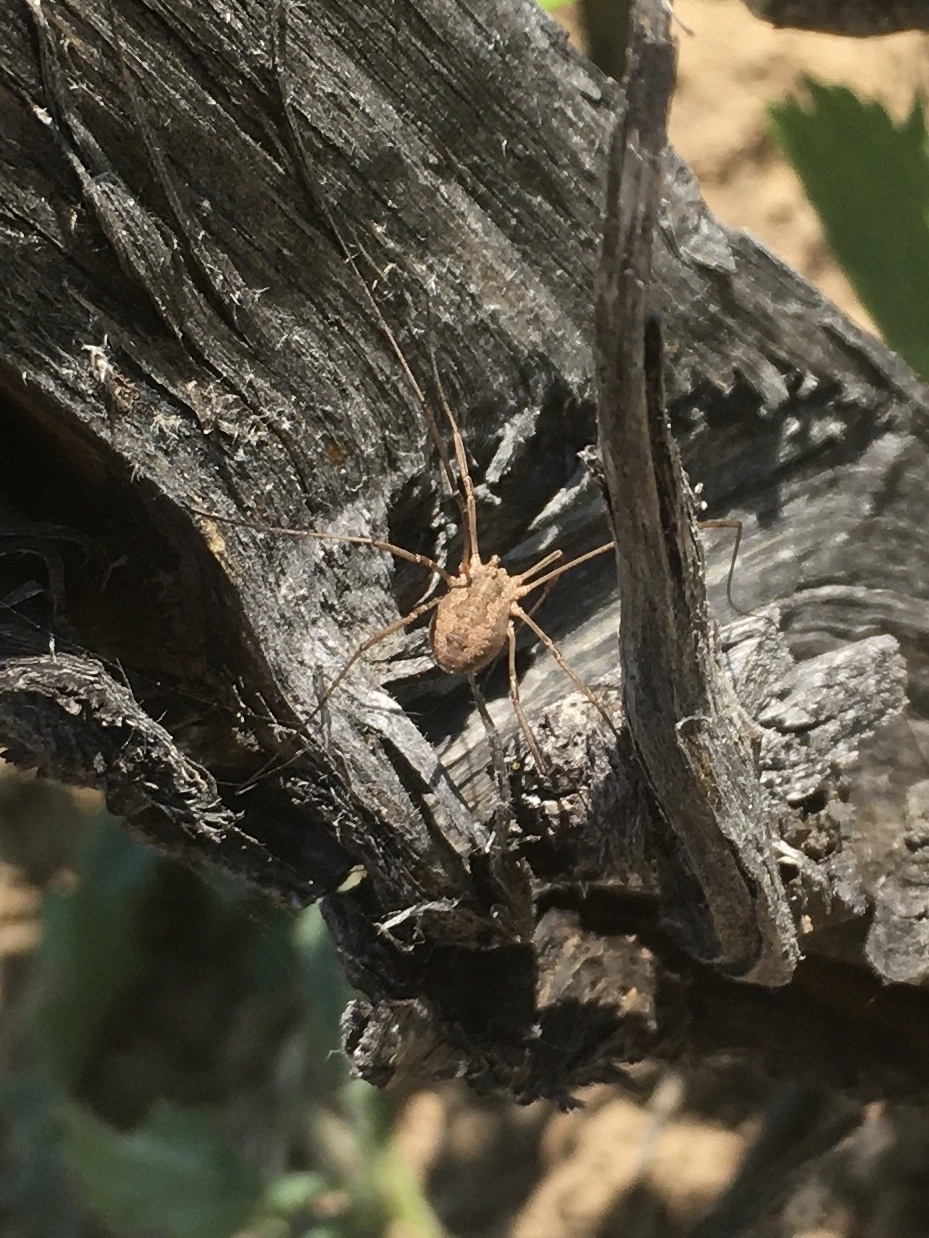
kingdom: Animalia
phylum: Arthropoda
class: Arachnida
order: Opiliones
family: Phalangiidae
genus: Phalangium
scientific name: Phalangium opilio
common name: Daddy longleg
